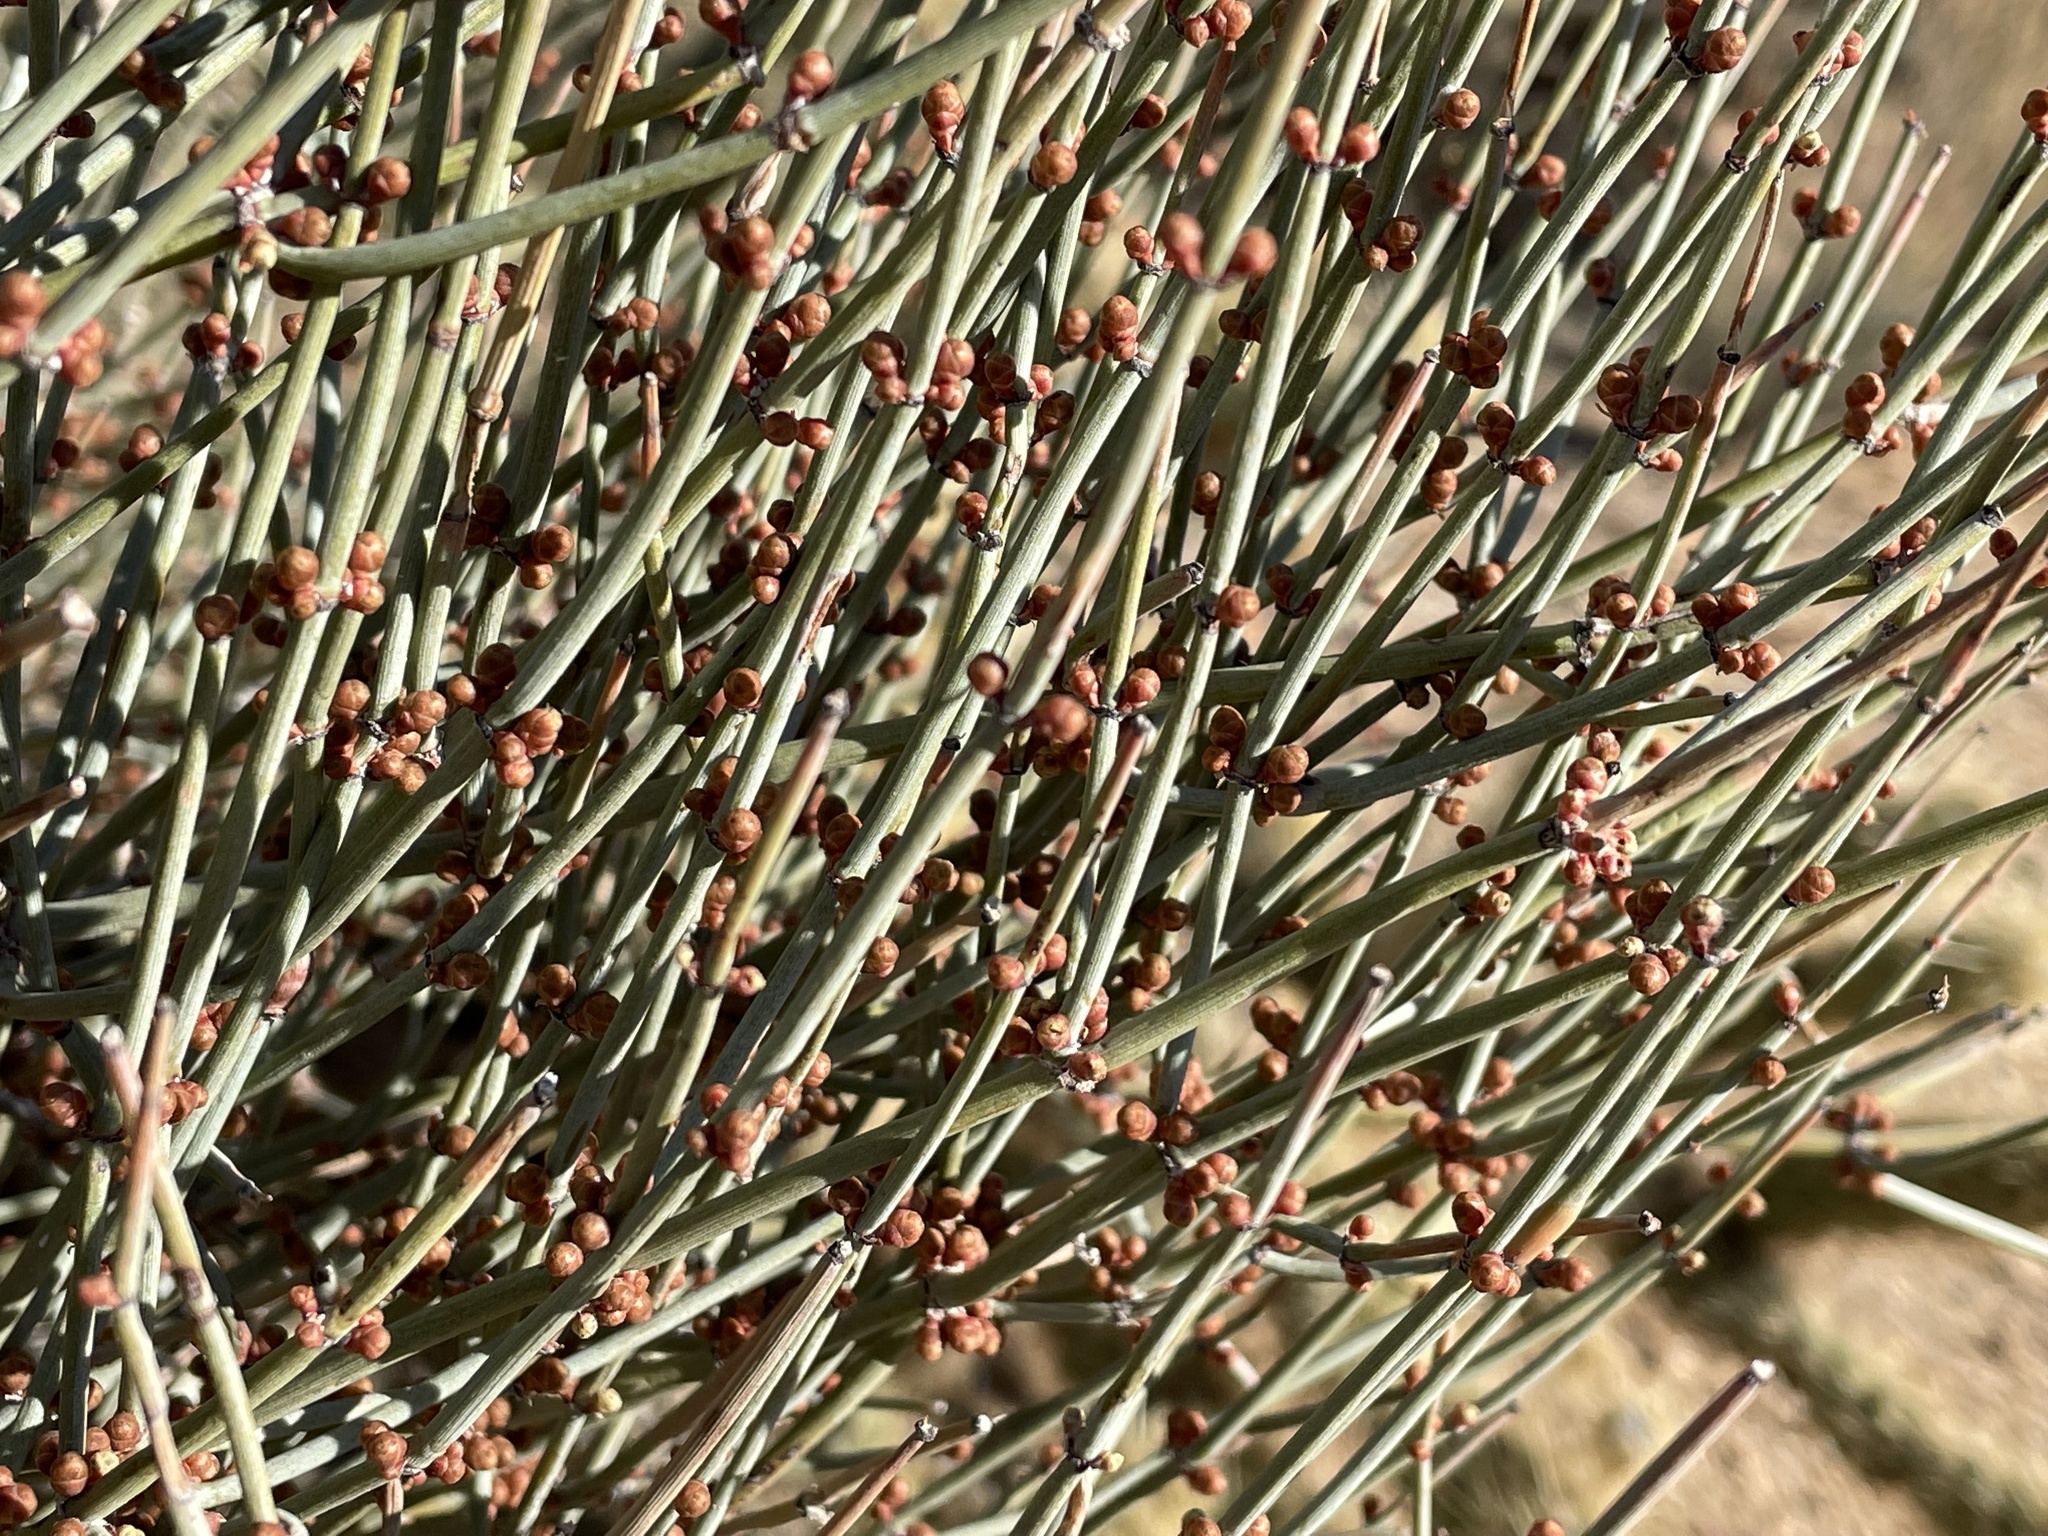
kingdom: Plantae
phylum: Tracheophyta
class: Gnetopsida
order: Ephedrales
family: Ephedraceae
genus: Ephedra
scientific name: Ephedra aspera
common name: Boundary ephedra
